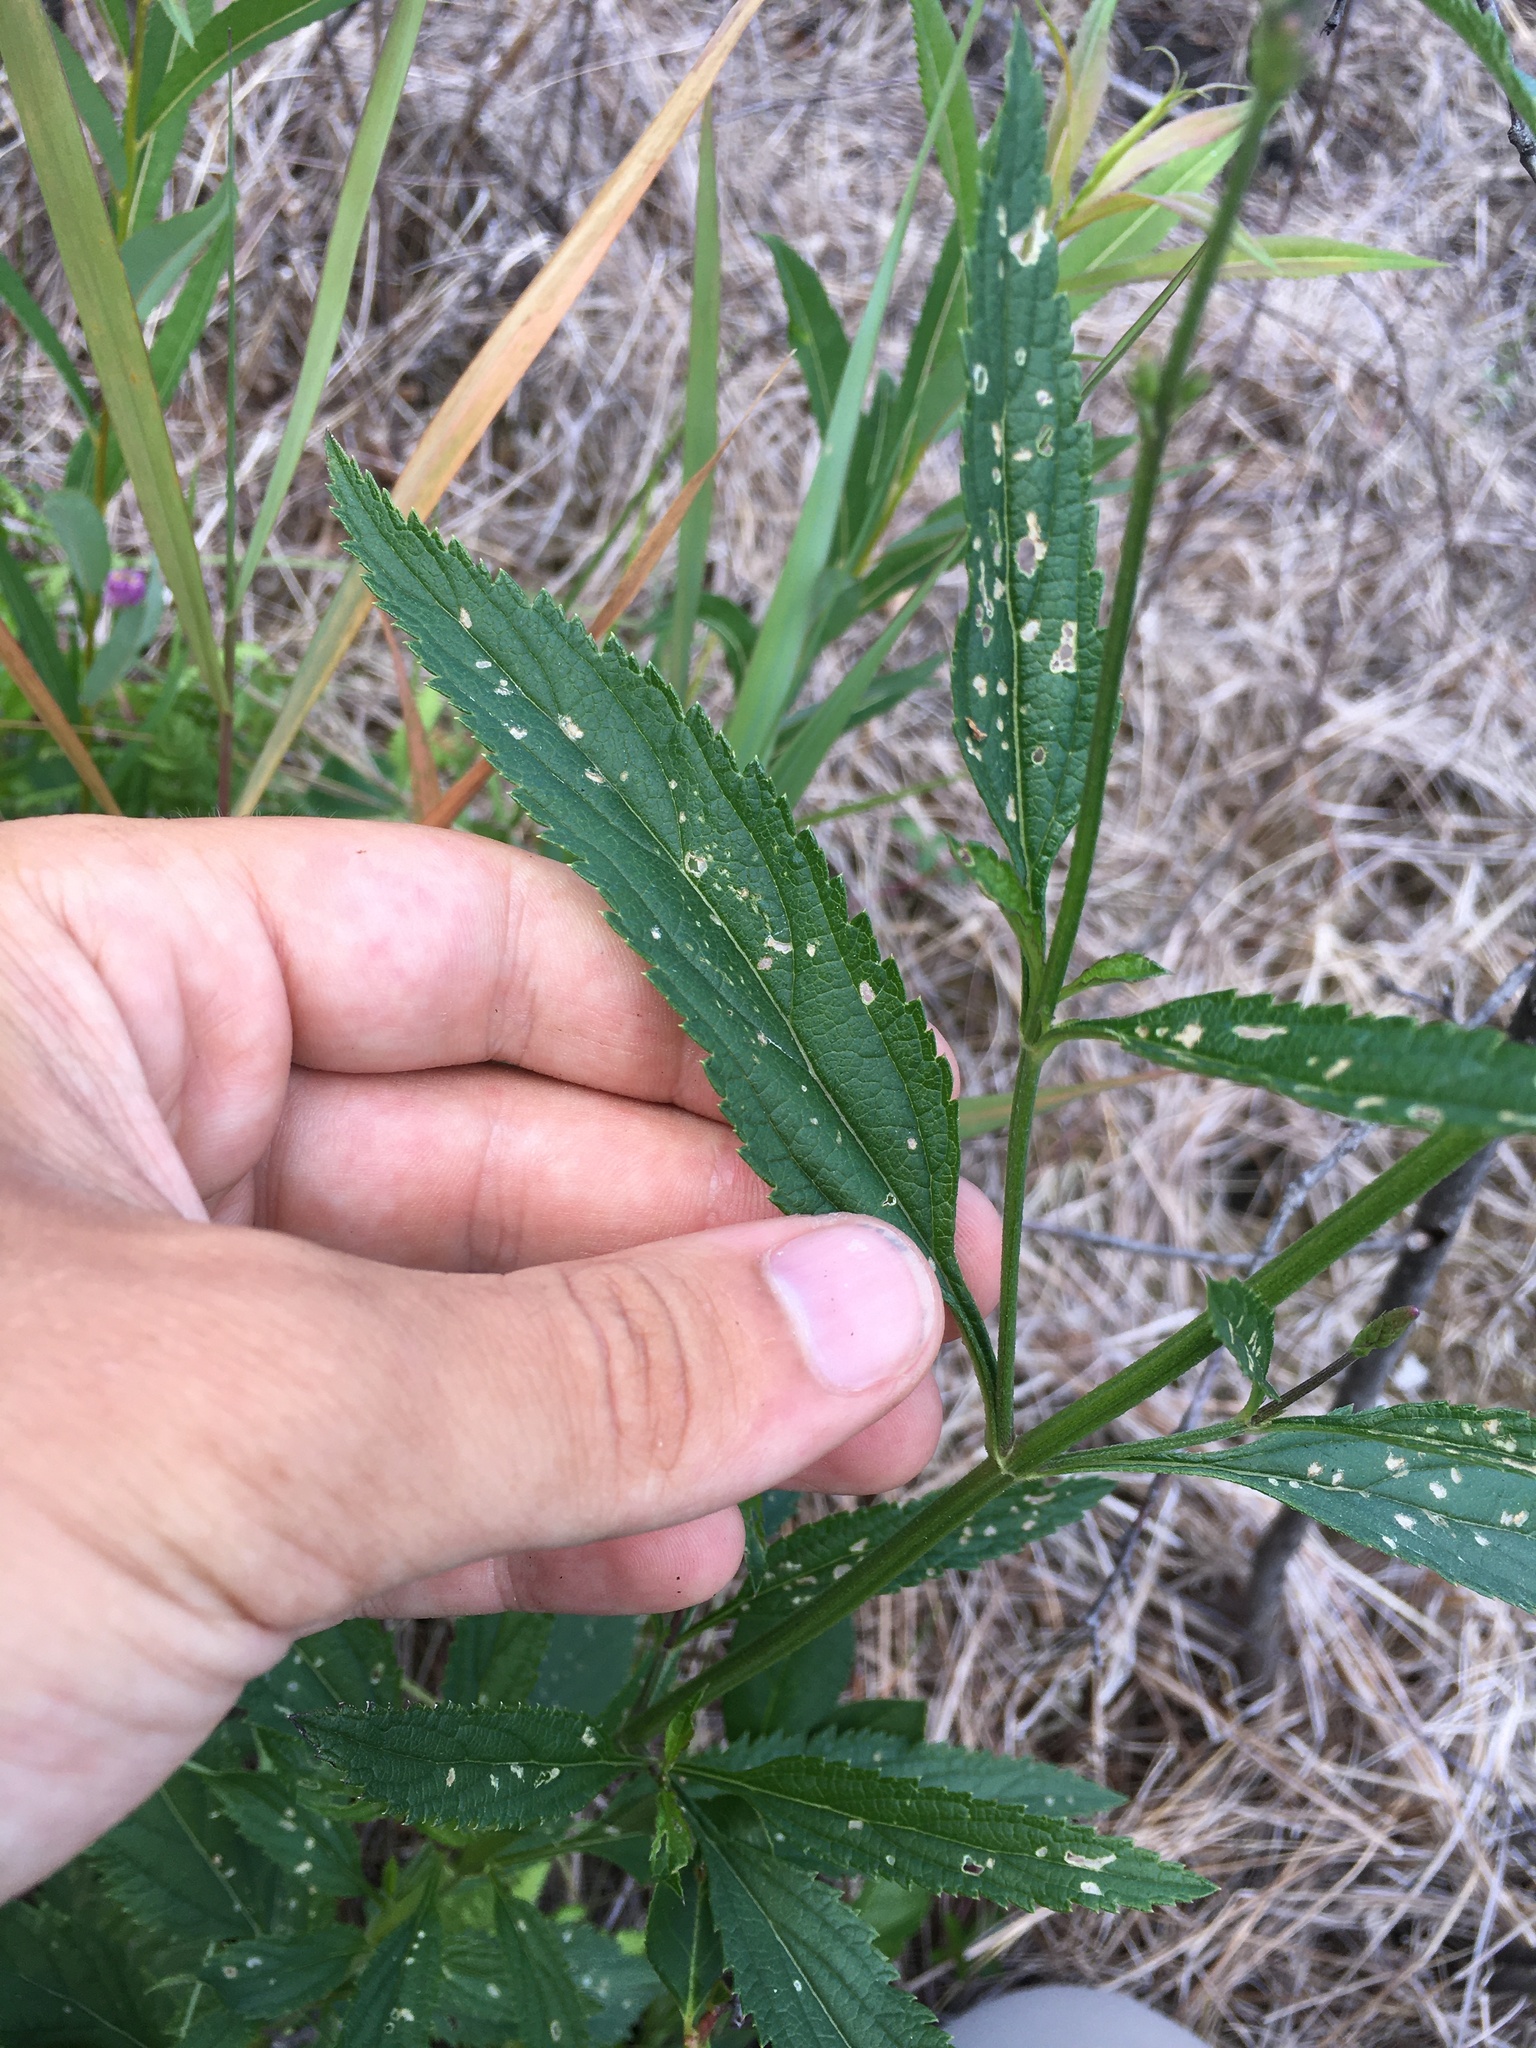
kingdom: Plantae
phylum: Tracheophyta
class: Magnoliopsida
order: Lamiales
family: Verbenaceae
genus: Verbena
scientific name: Verbena hastata
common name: American blue vervain
